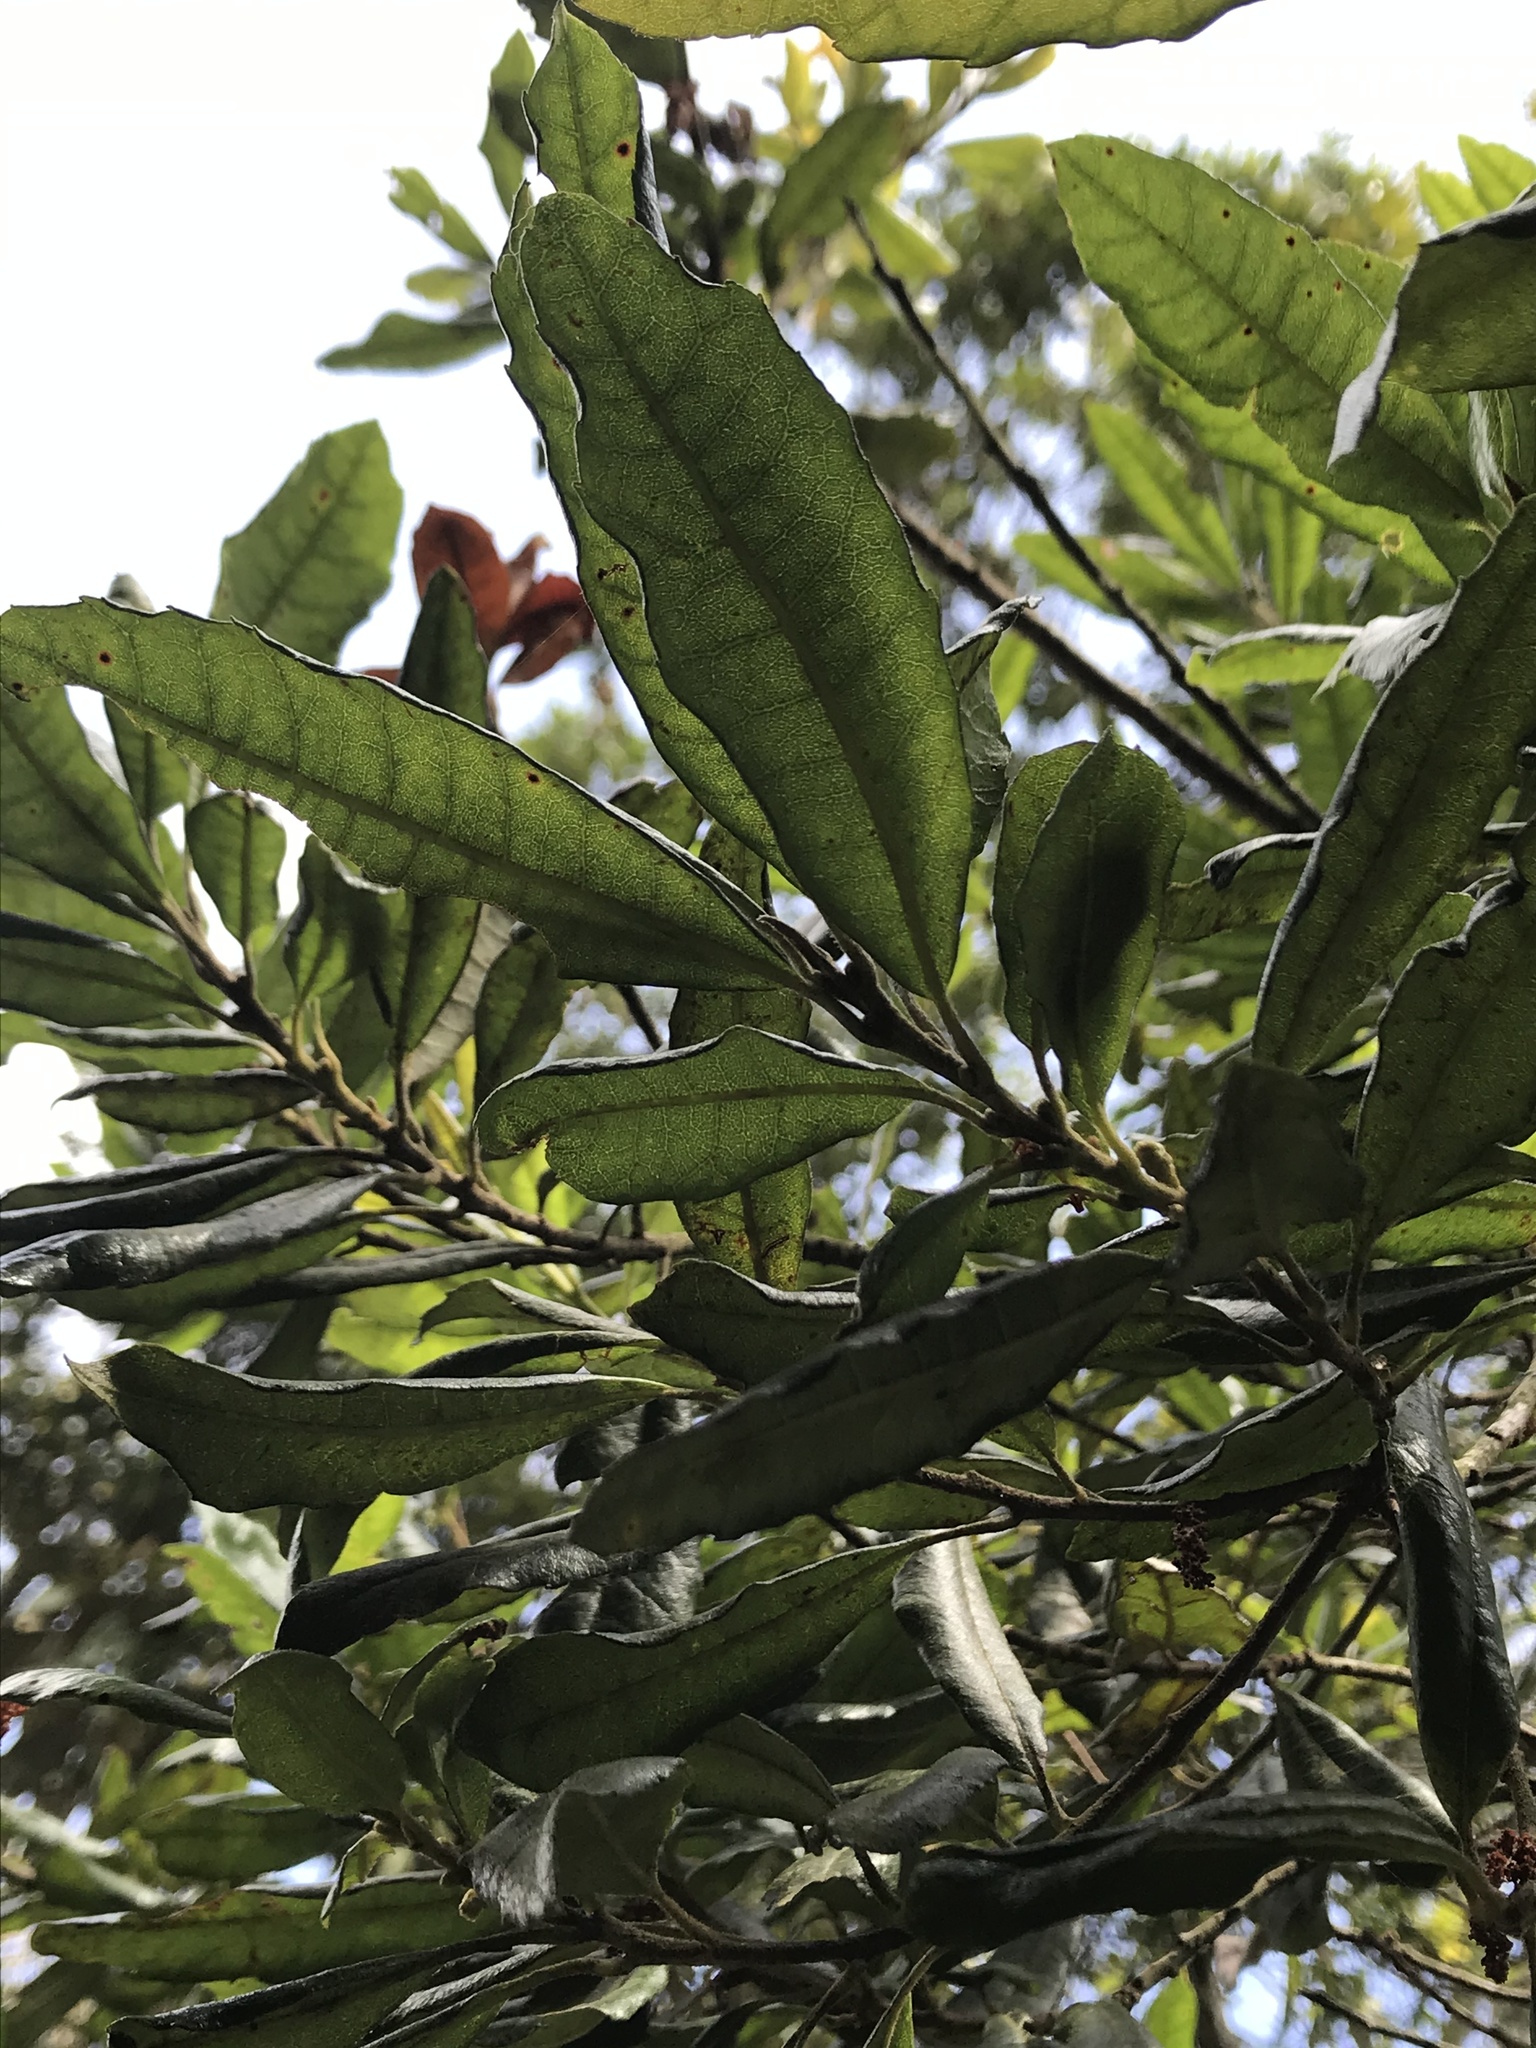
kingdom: Plantae
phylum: Tracheophyta
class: Magnoliopsida
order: Fagales
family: Myricaceae
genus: Morella
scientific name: Morella pubescens
